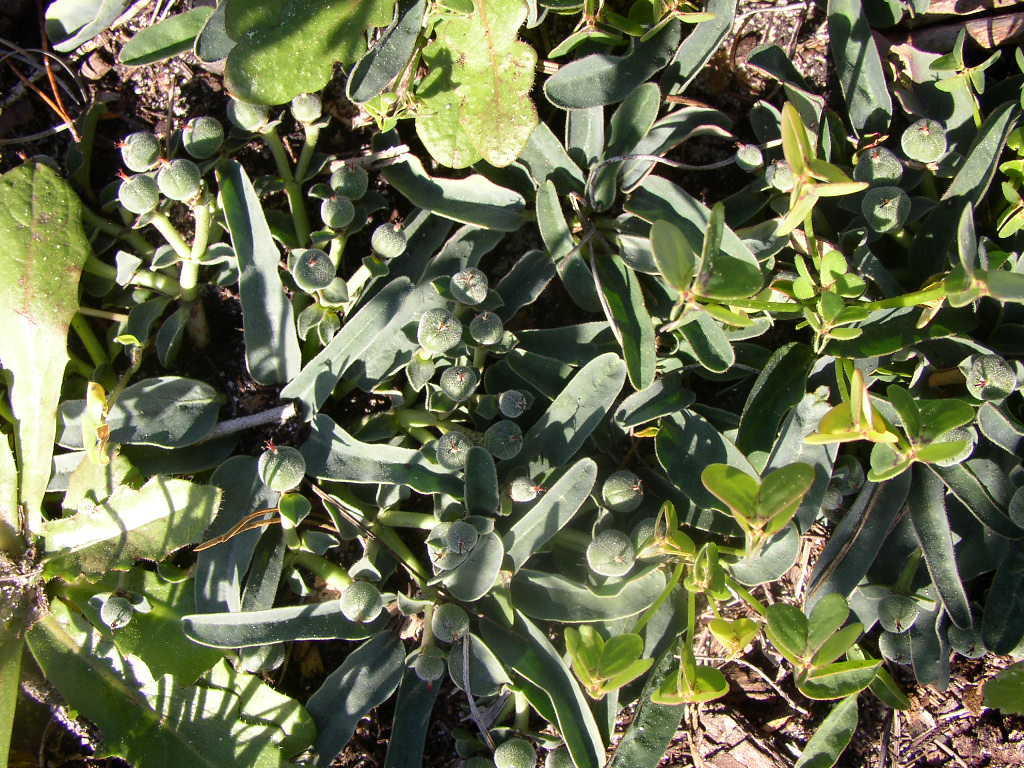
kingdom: Plantae
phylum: Tracheophyta
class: Magnoliopsida
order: Malpighiales
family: Euphorbiaceae
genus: Euphorbia
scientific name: Euphorbia tuberosa
